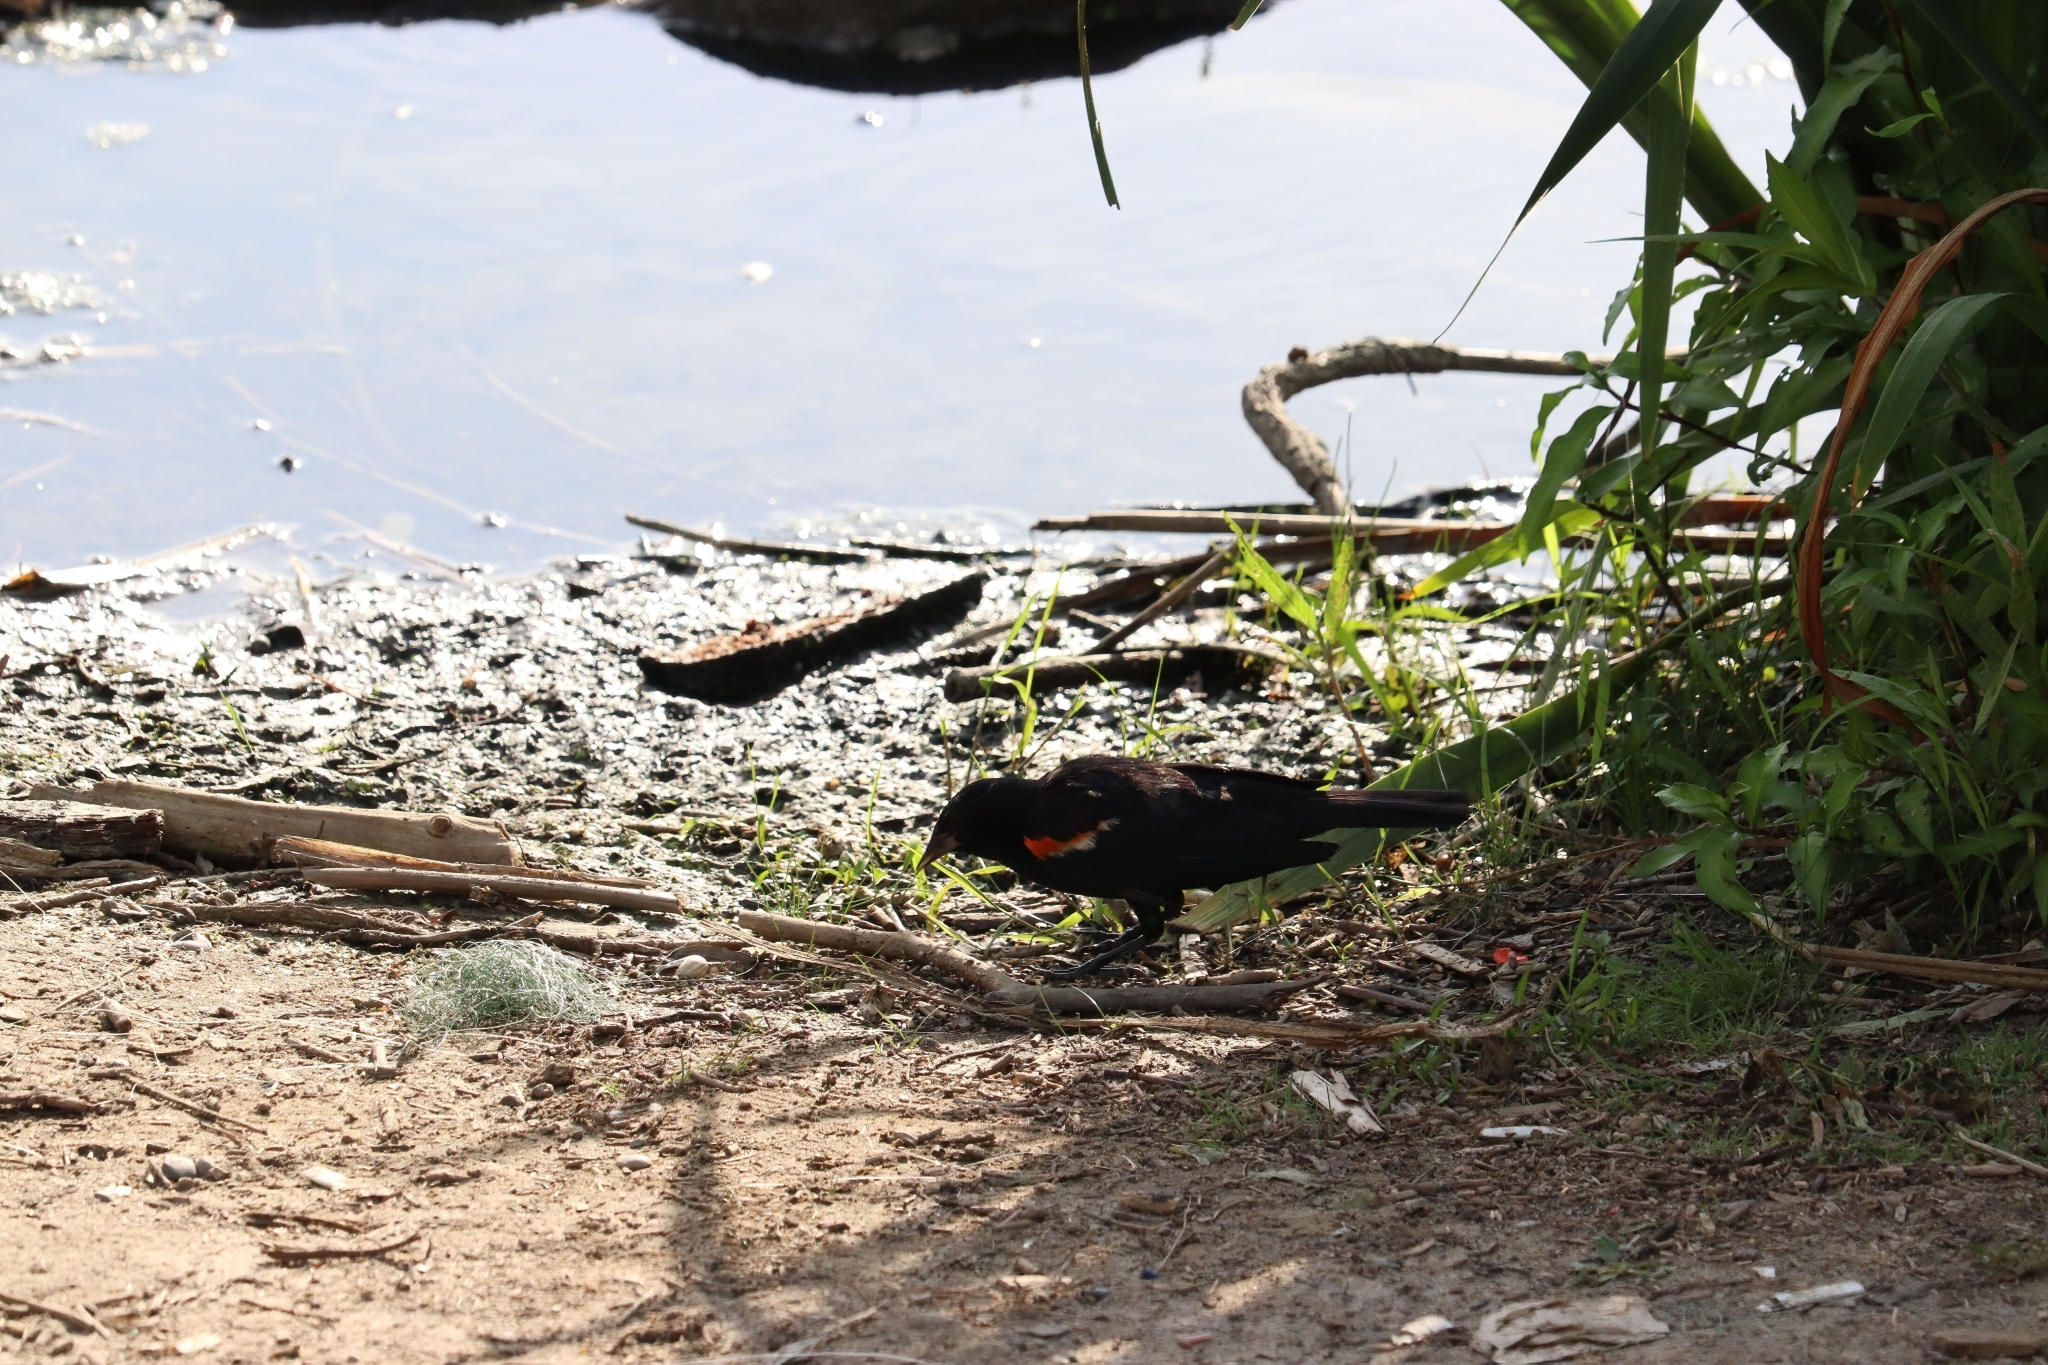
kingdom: Animalia
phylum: Chordata
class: Aves
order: Passeriformes
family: Icteridae
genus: Agelaius
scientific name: Agelaius phoeniceus
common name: Red-winged blackbird
